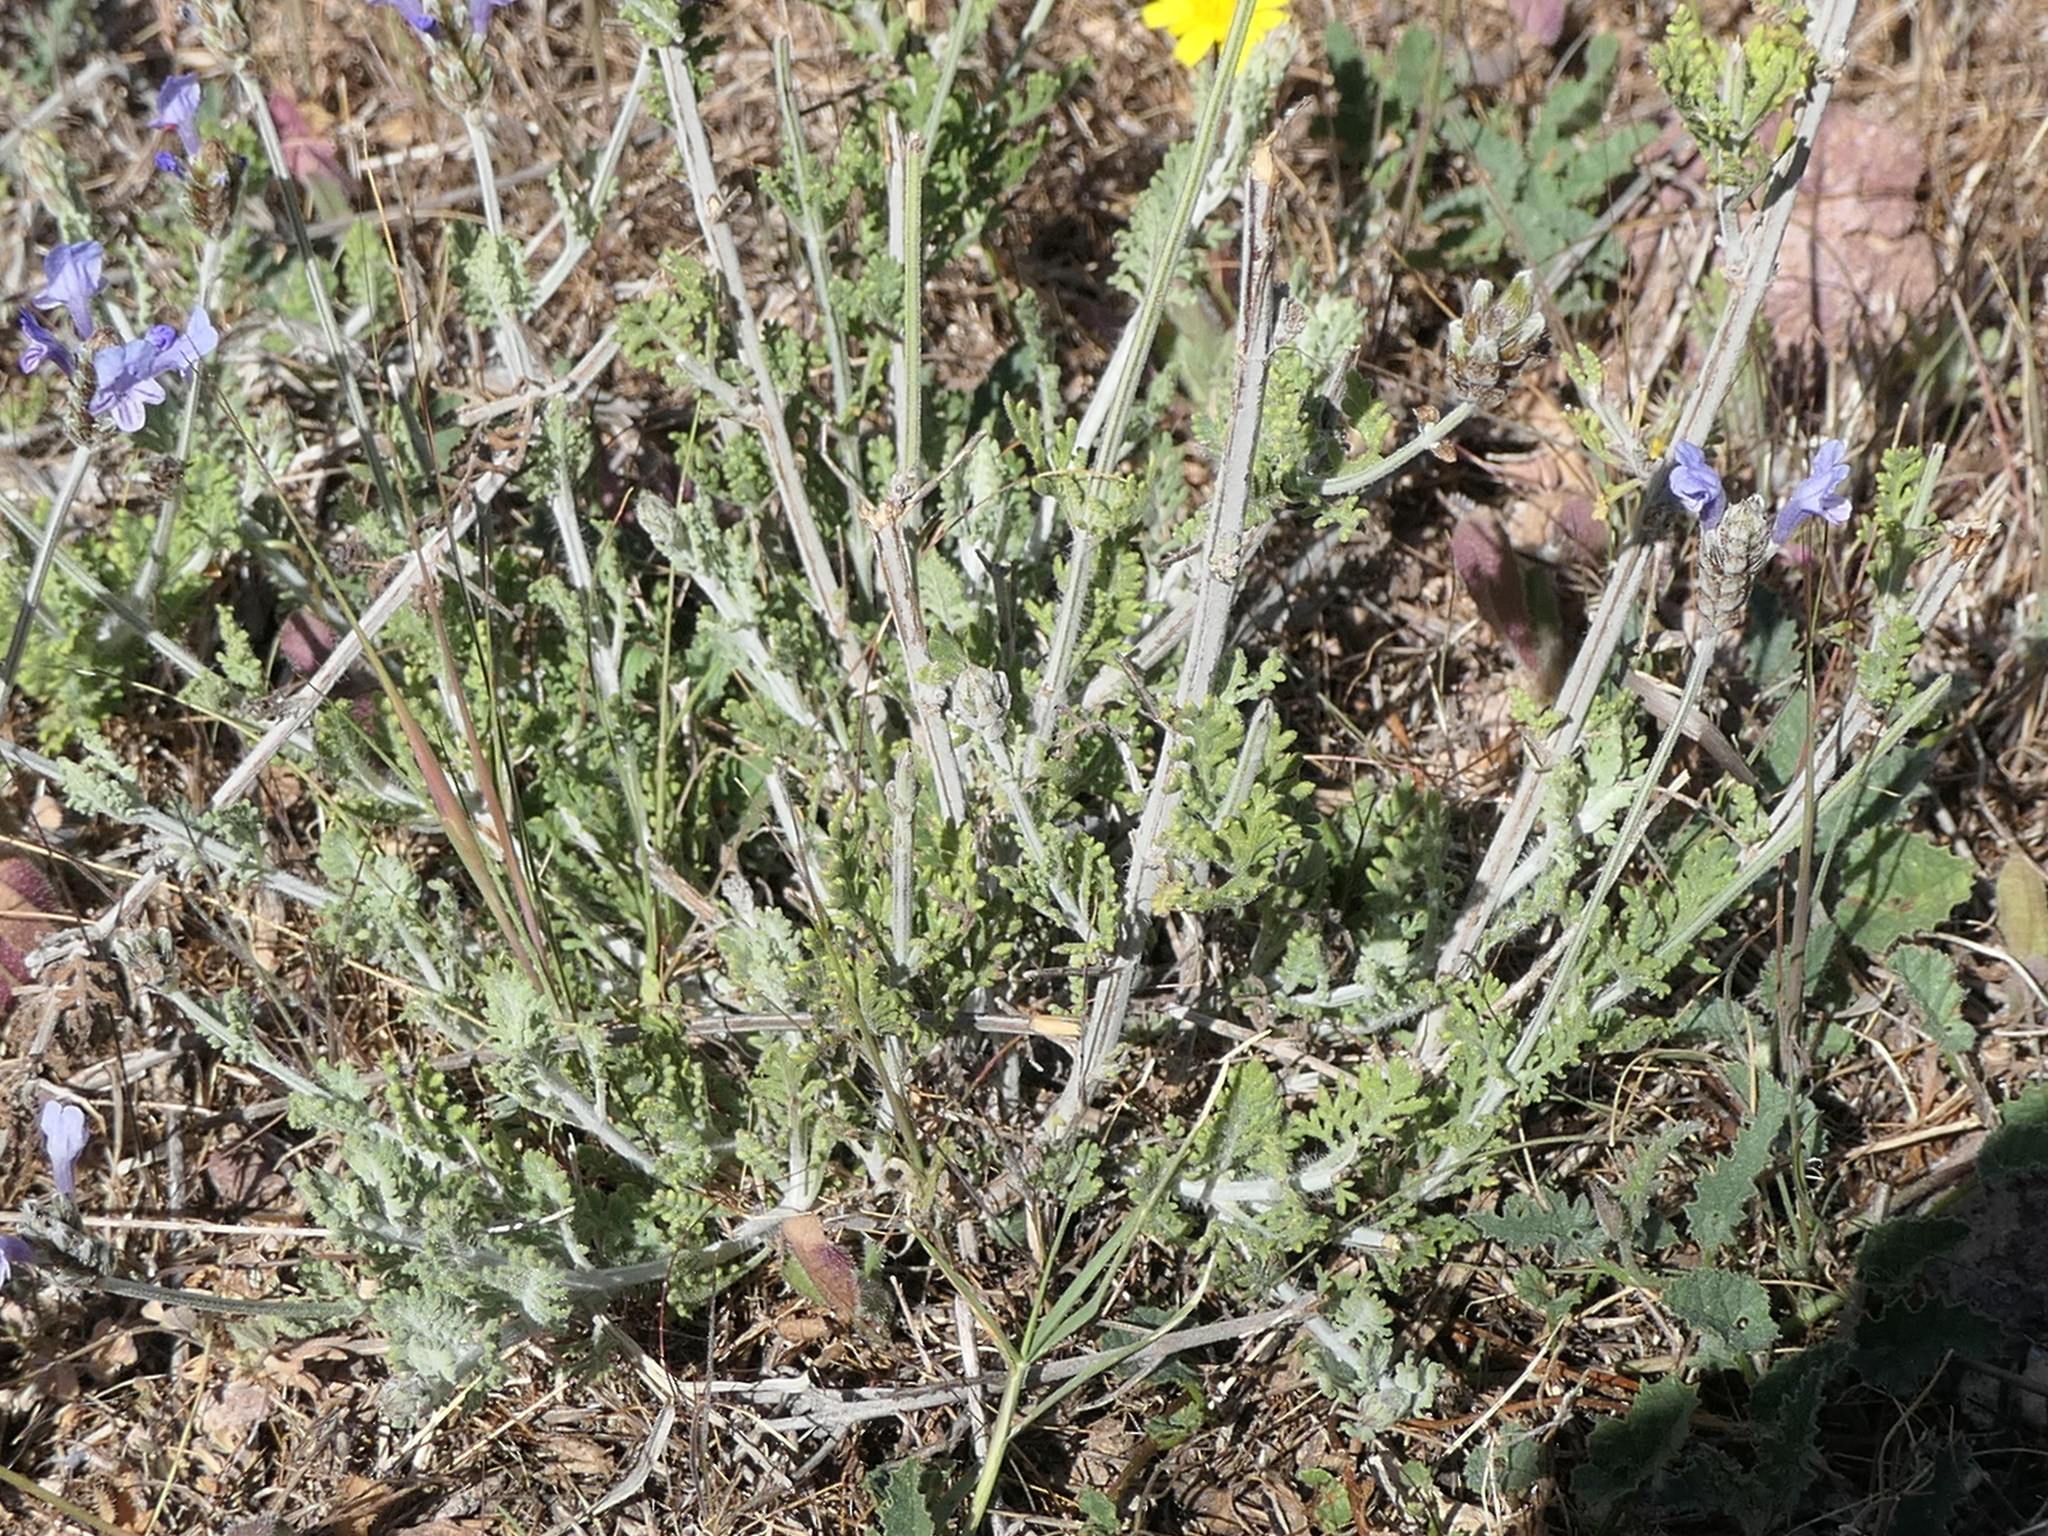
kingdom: Plantae
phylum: Tracheophyta
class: Magnoliopsida
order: Lamiales
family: Lamiaceae
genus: Lavandula
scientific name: Lavandula multifida
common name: Fern-leaf lavender
